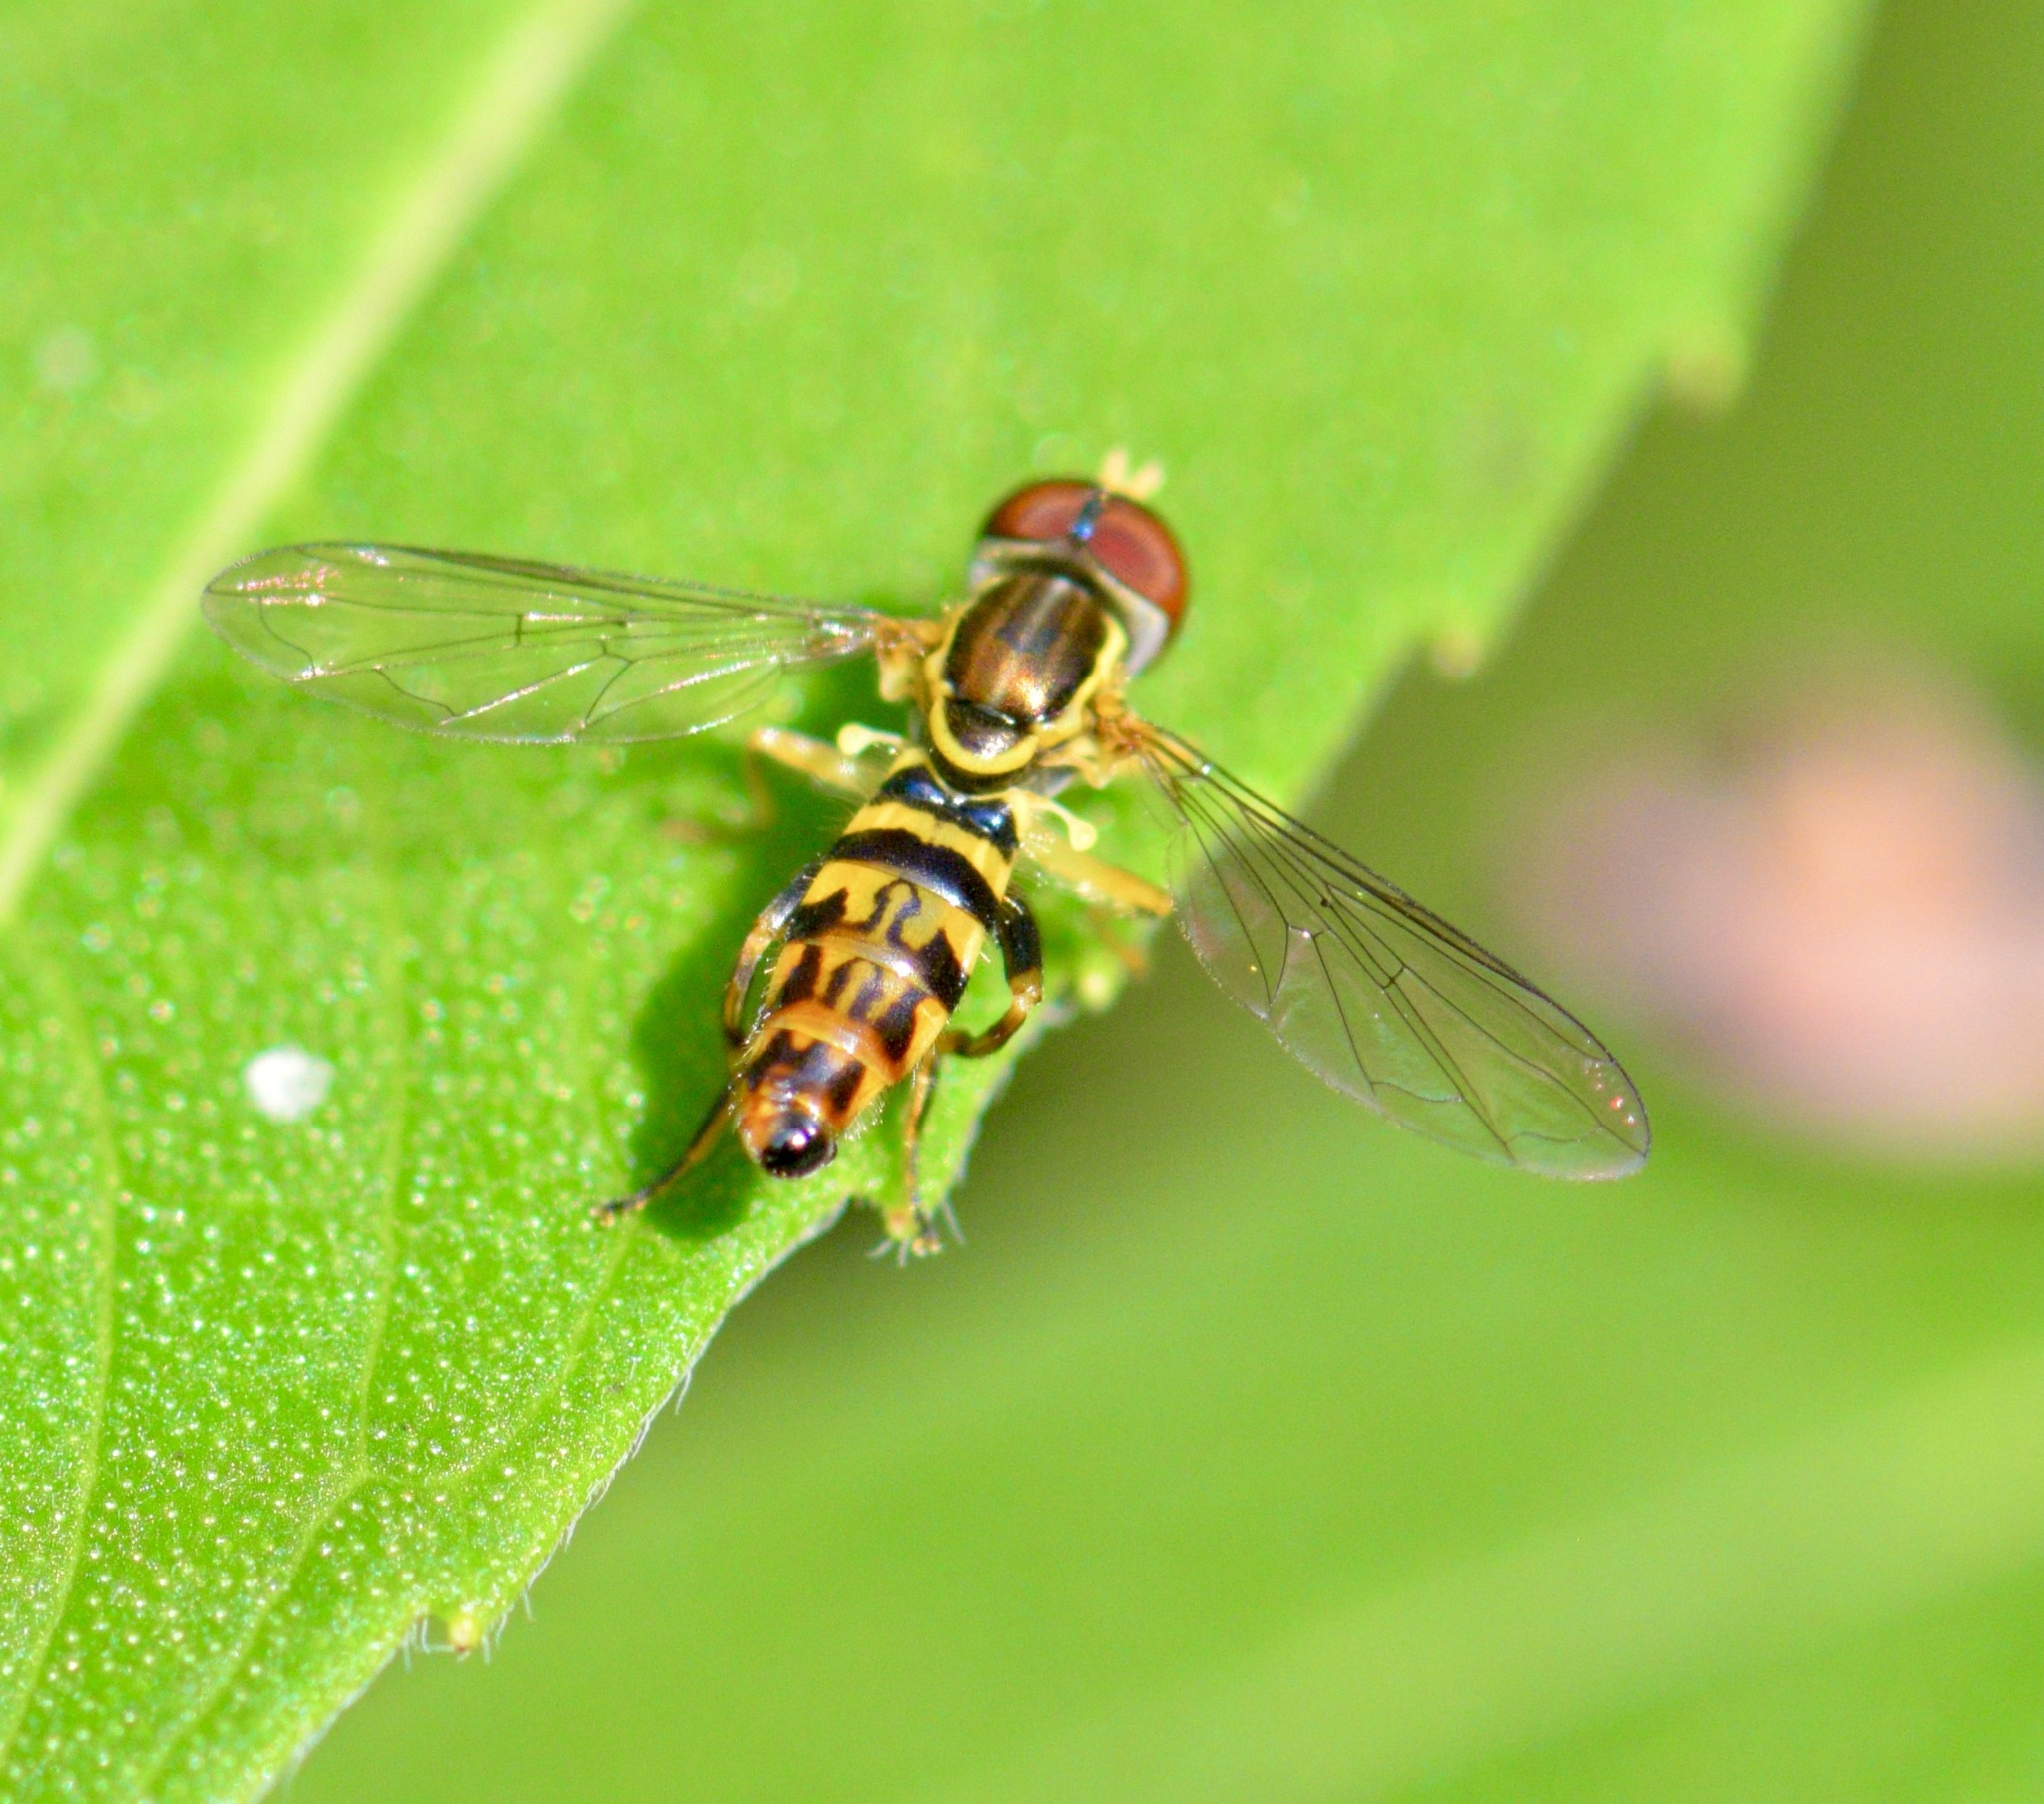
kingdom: Animalia
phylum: Arthropoda
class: Insecta
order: Diptera
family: Syrphidae
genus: Toxomerus
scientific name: Toxomerus geminatus
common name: Eastern calligrapher
